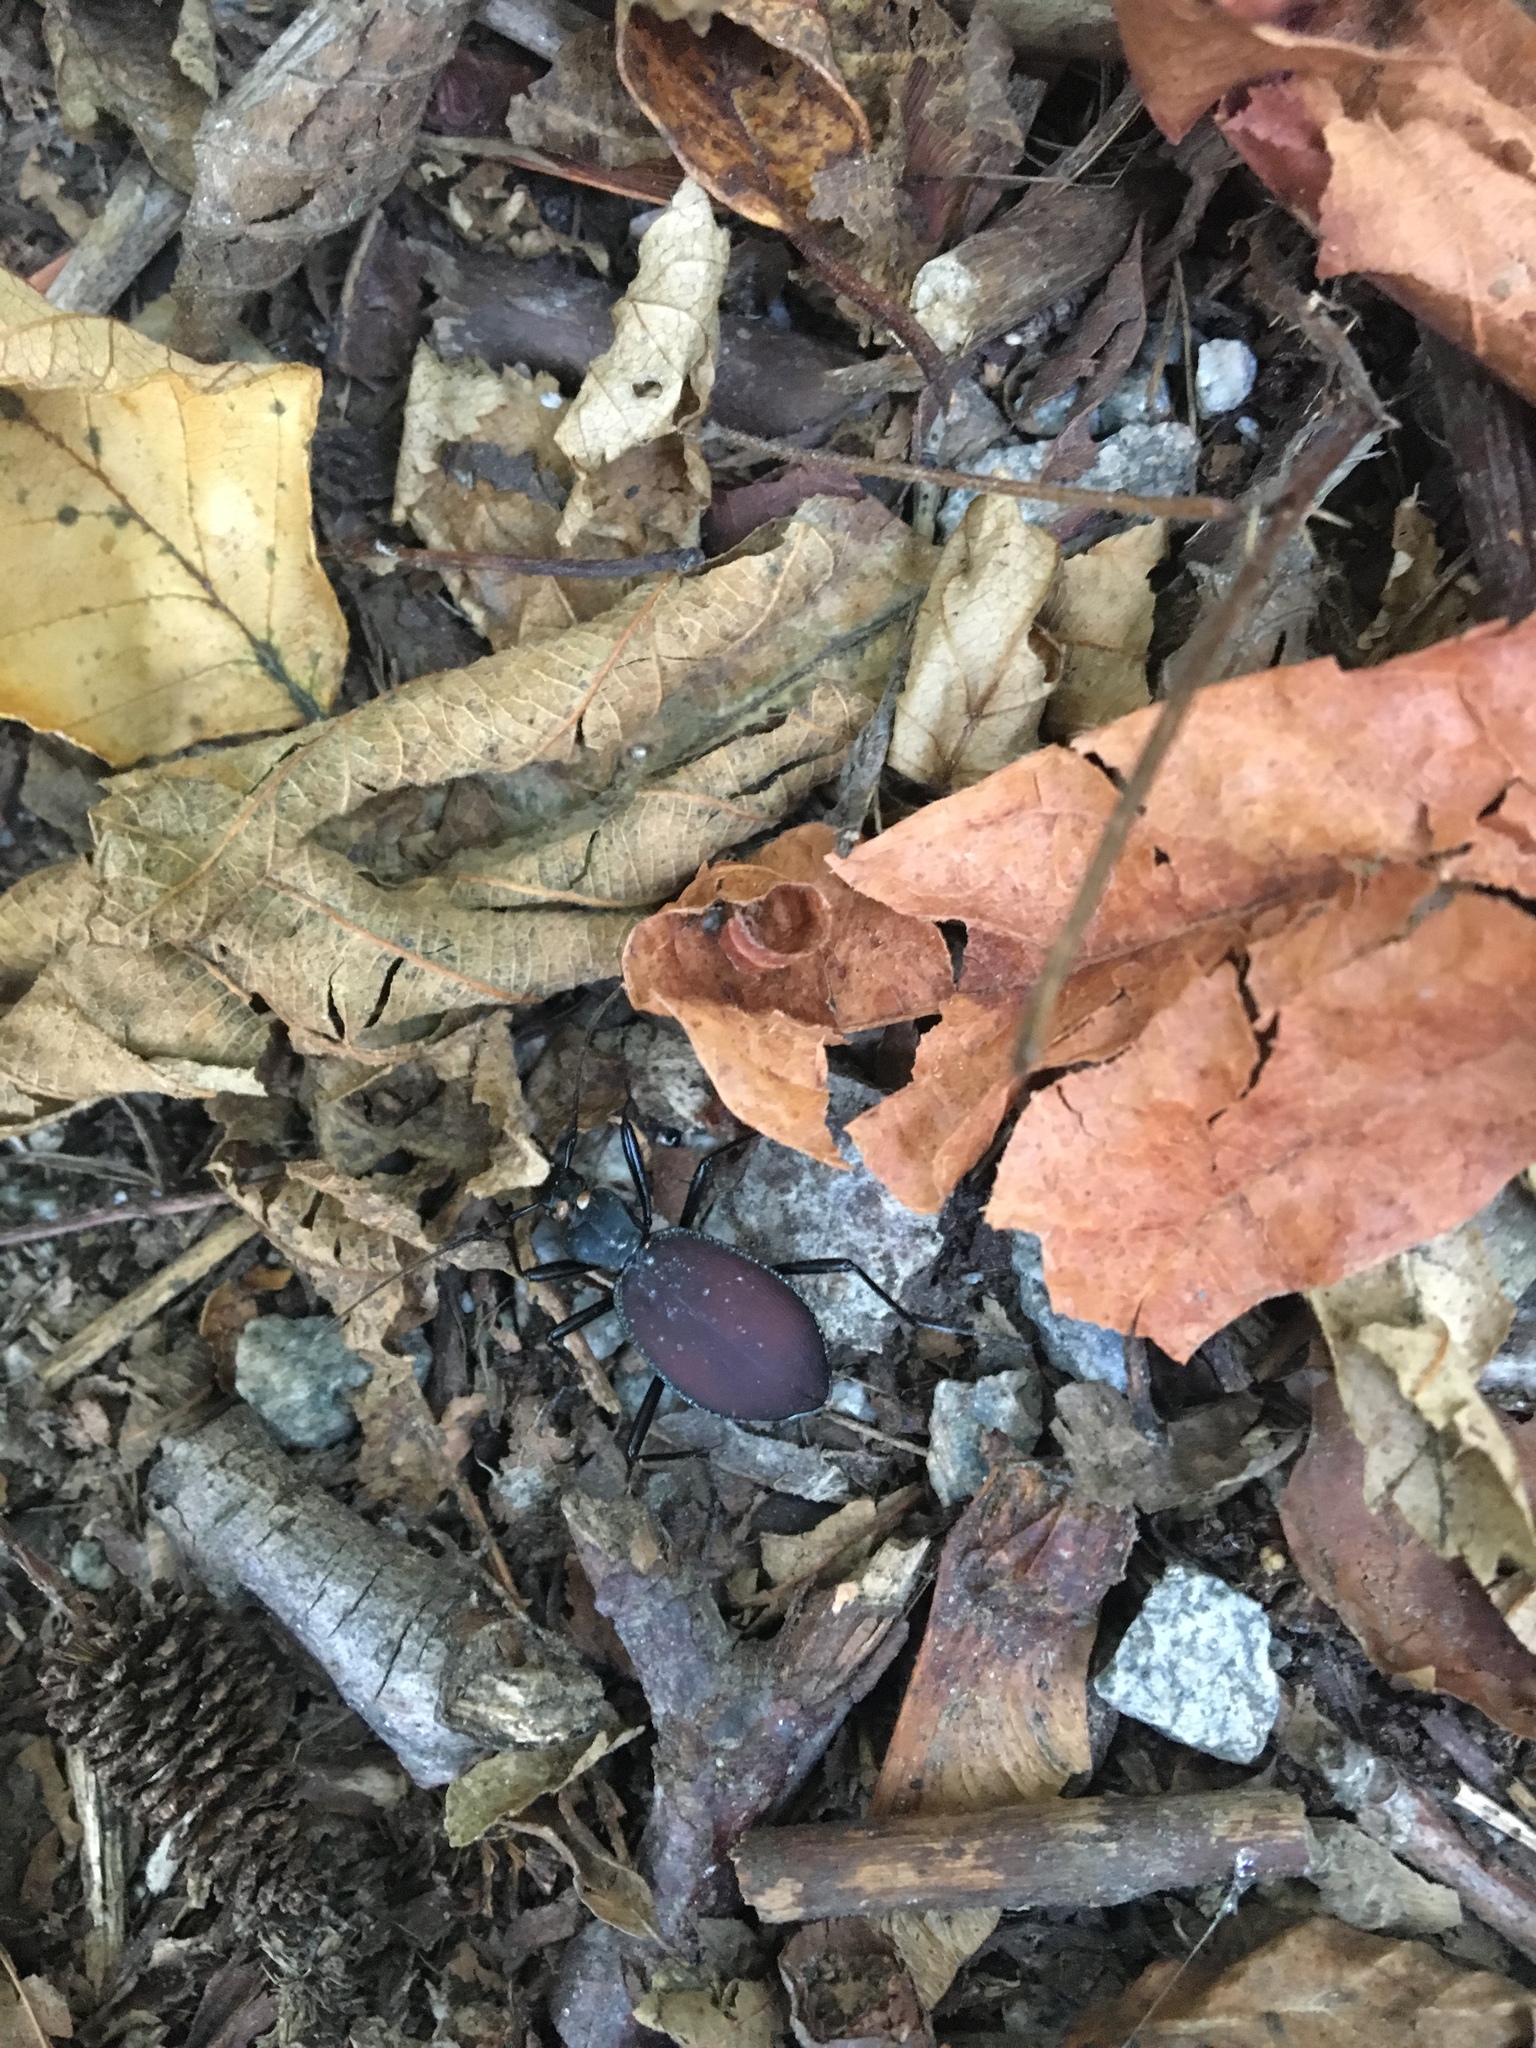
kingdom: Animalia
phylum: Arthropoda
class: Insecta
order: Coleoptera
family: Carabidae
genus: Scaphinotus
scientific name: Scaphinotus angusticollis
